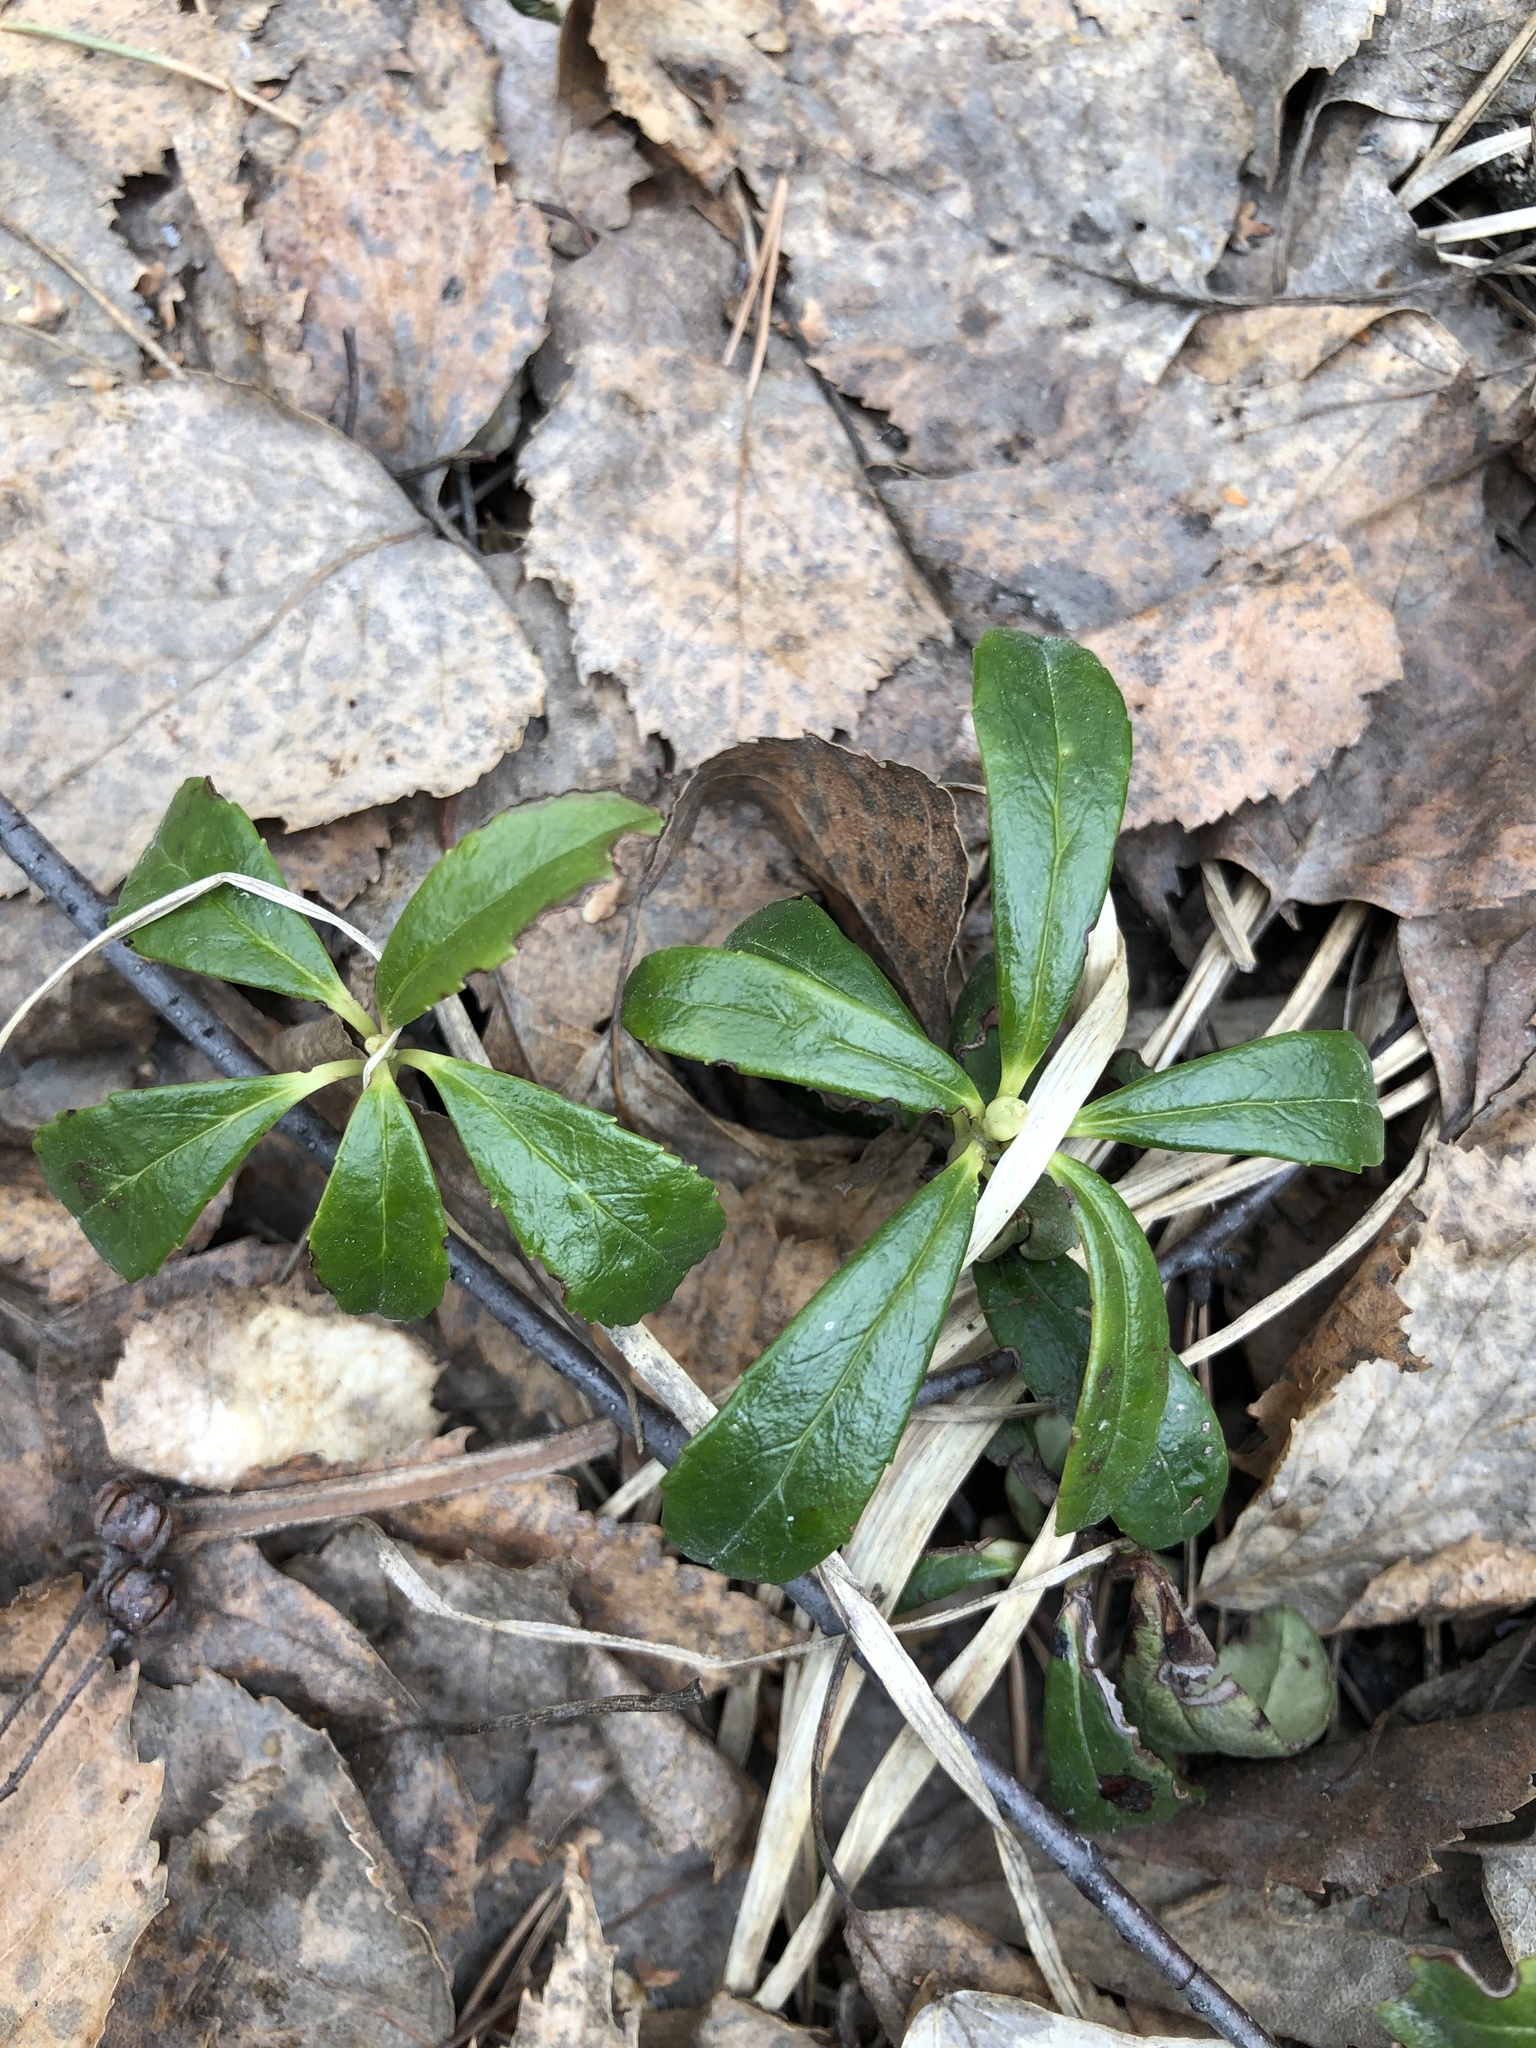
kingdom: Plantae
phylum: Tracheophyta
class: Magnoliopsida
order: Ericales
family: Ericaceae
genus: Chimaphila
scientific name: Chimaphila umbellata
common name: Pipsissewa
